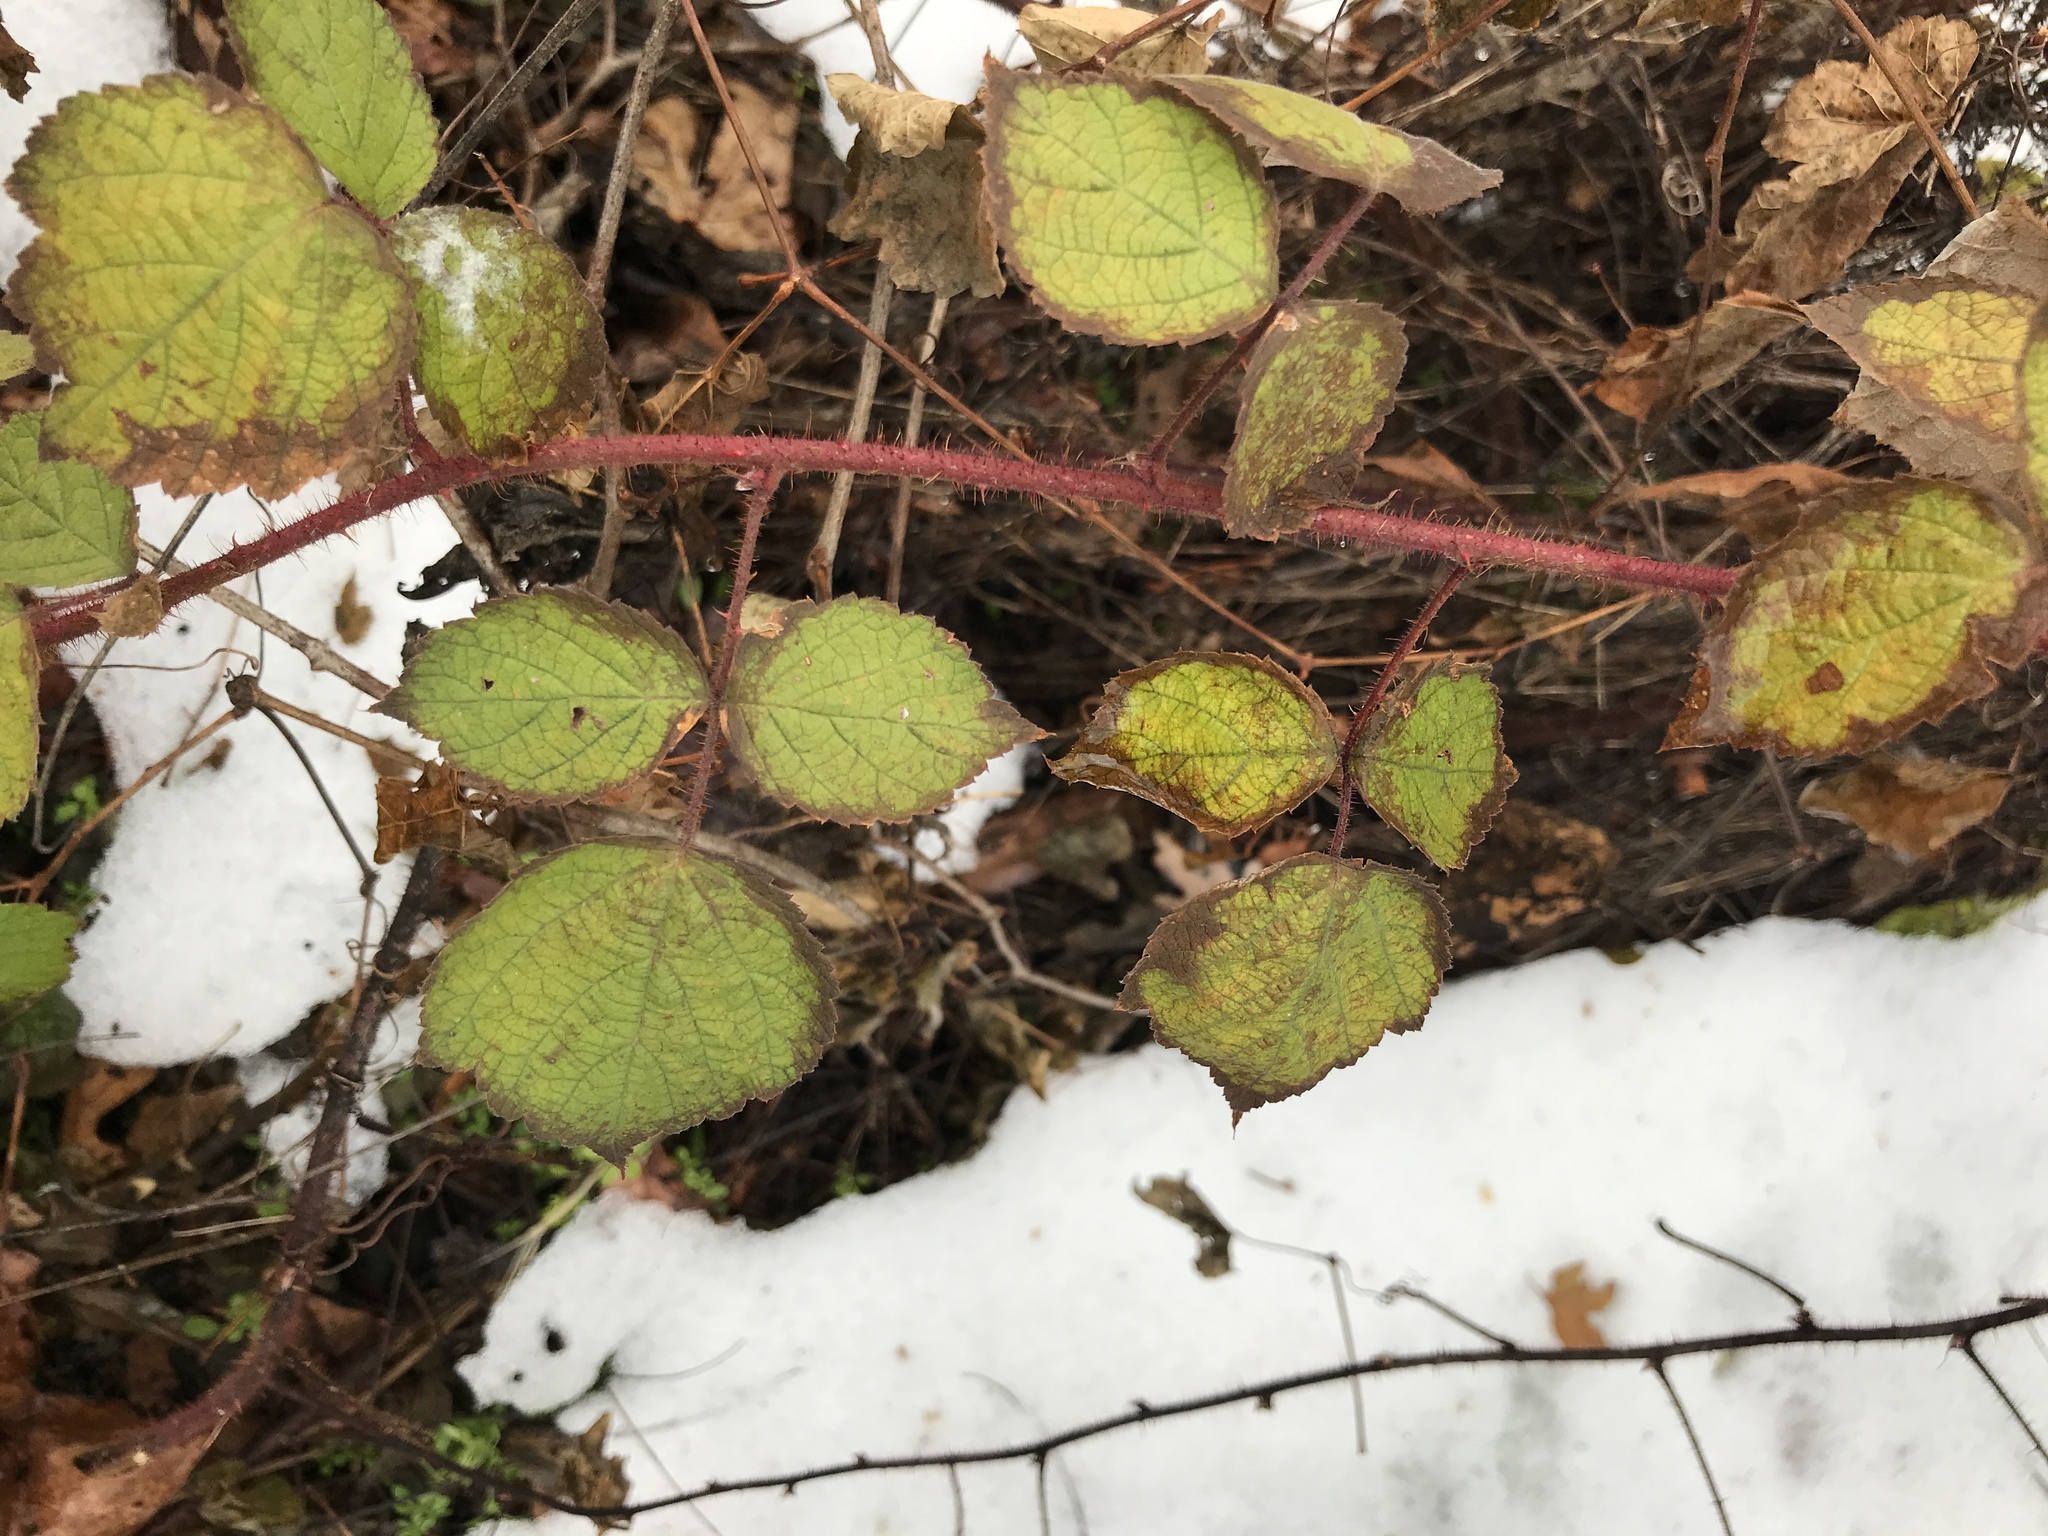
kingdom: Plantae
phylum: Tracheophyta
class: Magnoliopsida
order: Rosales
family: Rosaceae
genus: Rubus
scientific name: Rubus phoenicolasius
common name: Japanese wineberry
